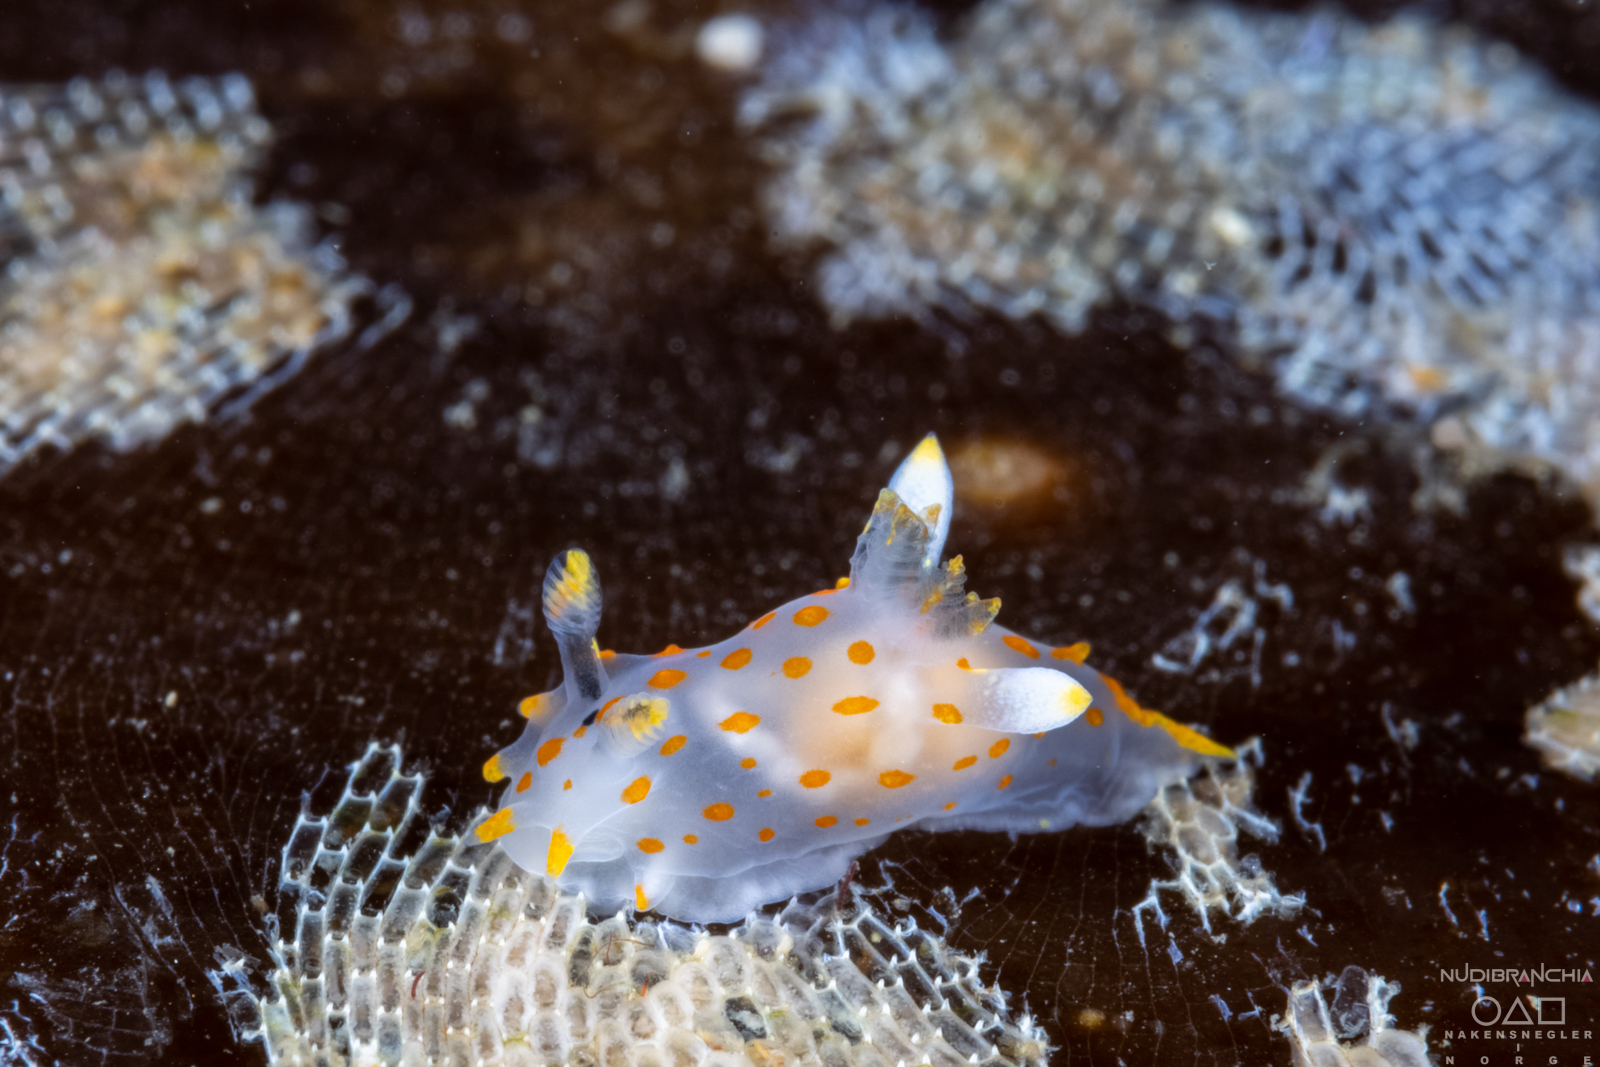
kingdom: Animalia
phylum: Mollusca
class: Gastropoda
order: Nudibranchia
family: Polyceridae
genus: Polycera
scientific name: Polycera quadrilineata
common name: Four-striped polycera
